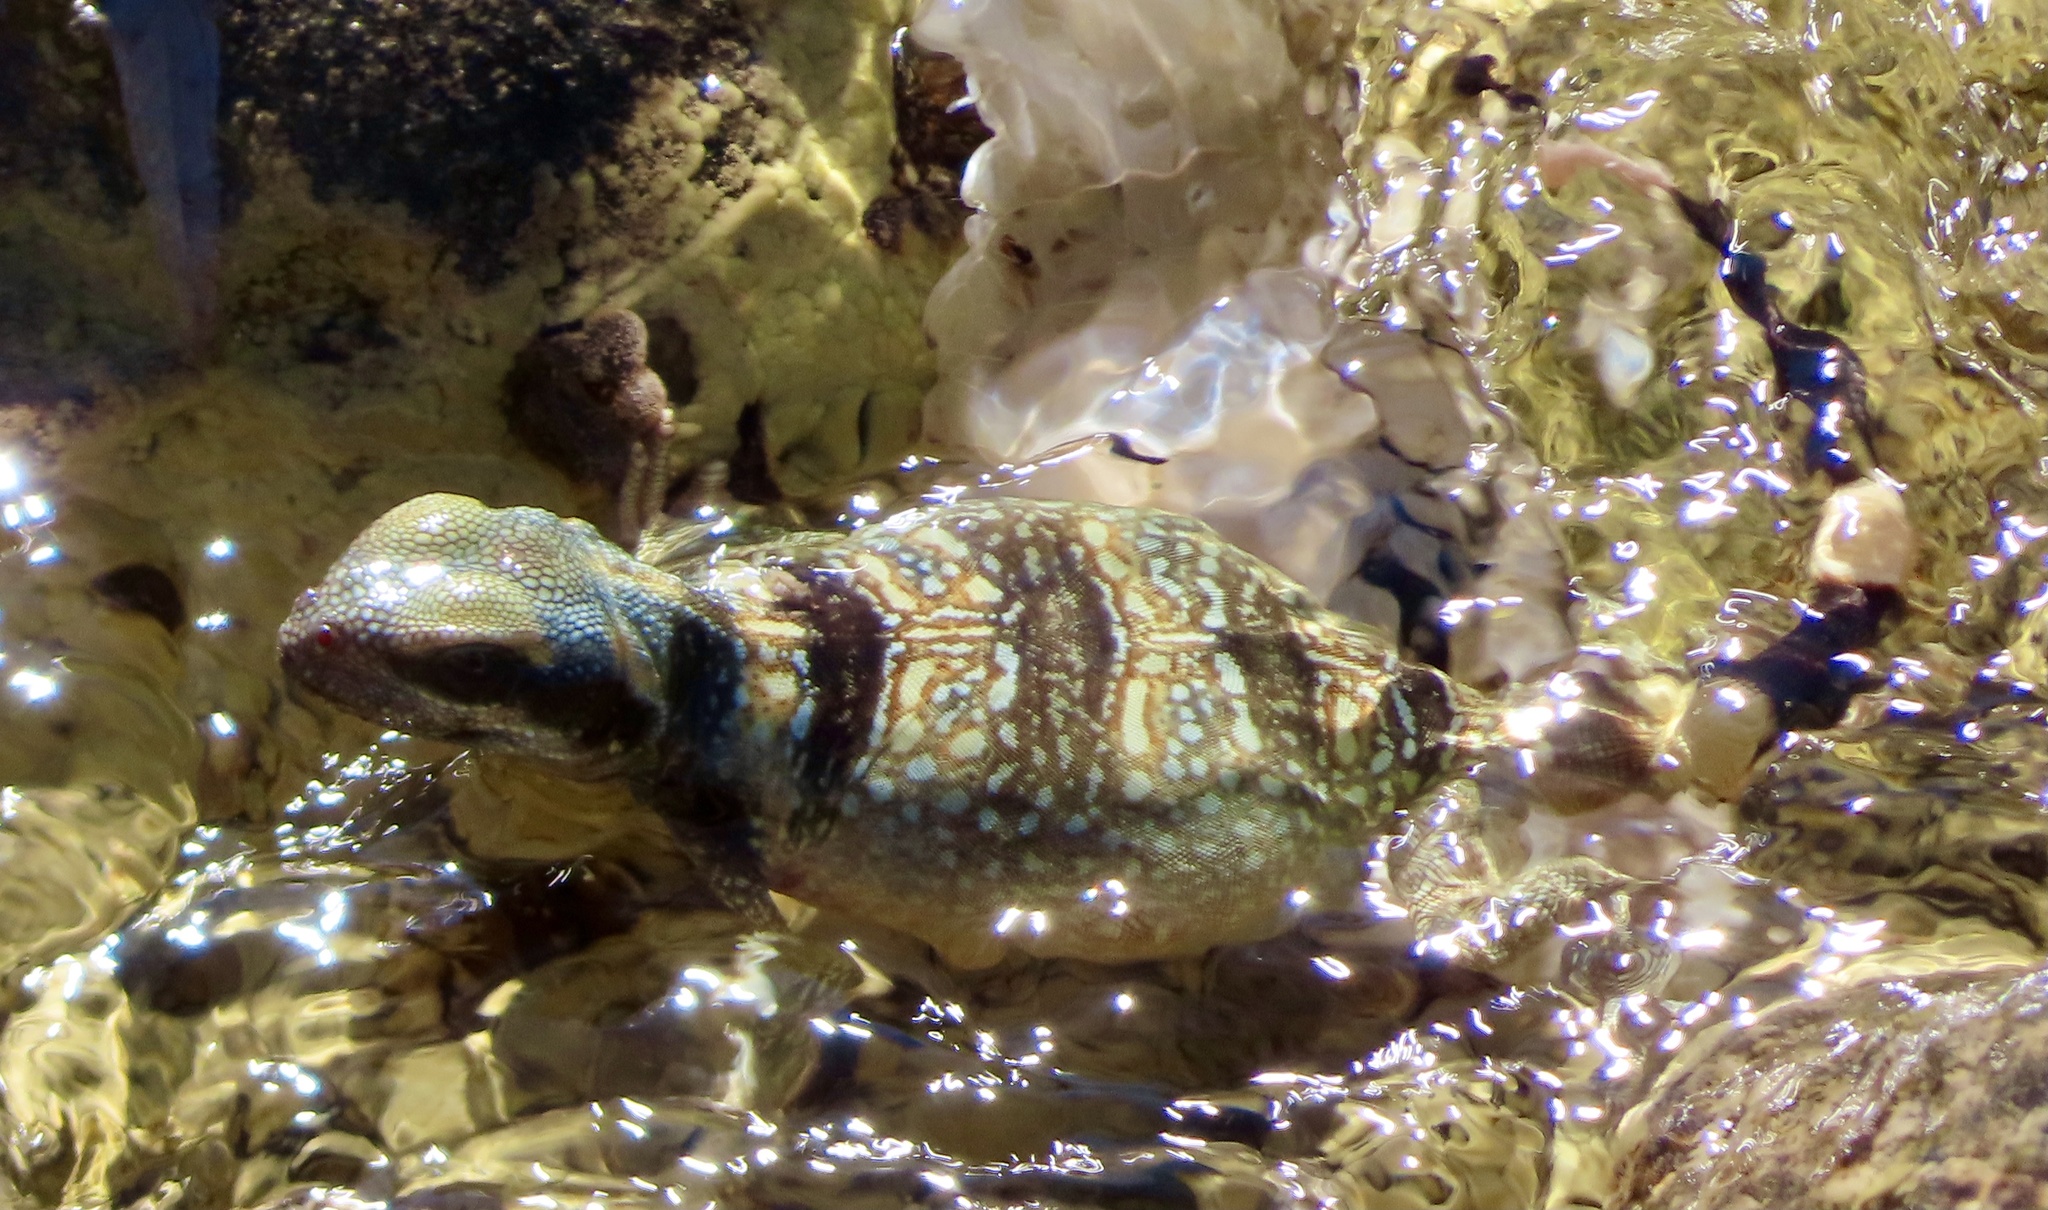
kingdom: Animalia
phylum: Chordata
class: Squamata
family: Iguanidae
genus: Sauromalus
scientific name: Sauromalus ater
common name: Northern chuckwalla
